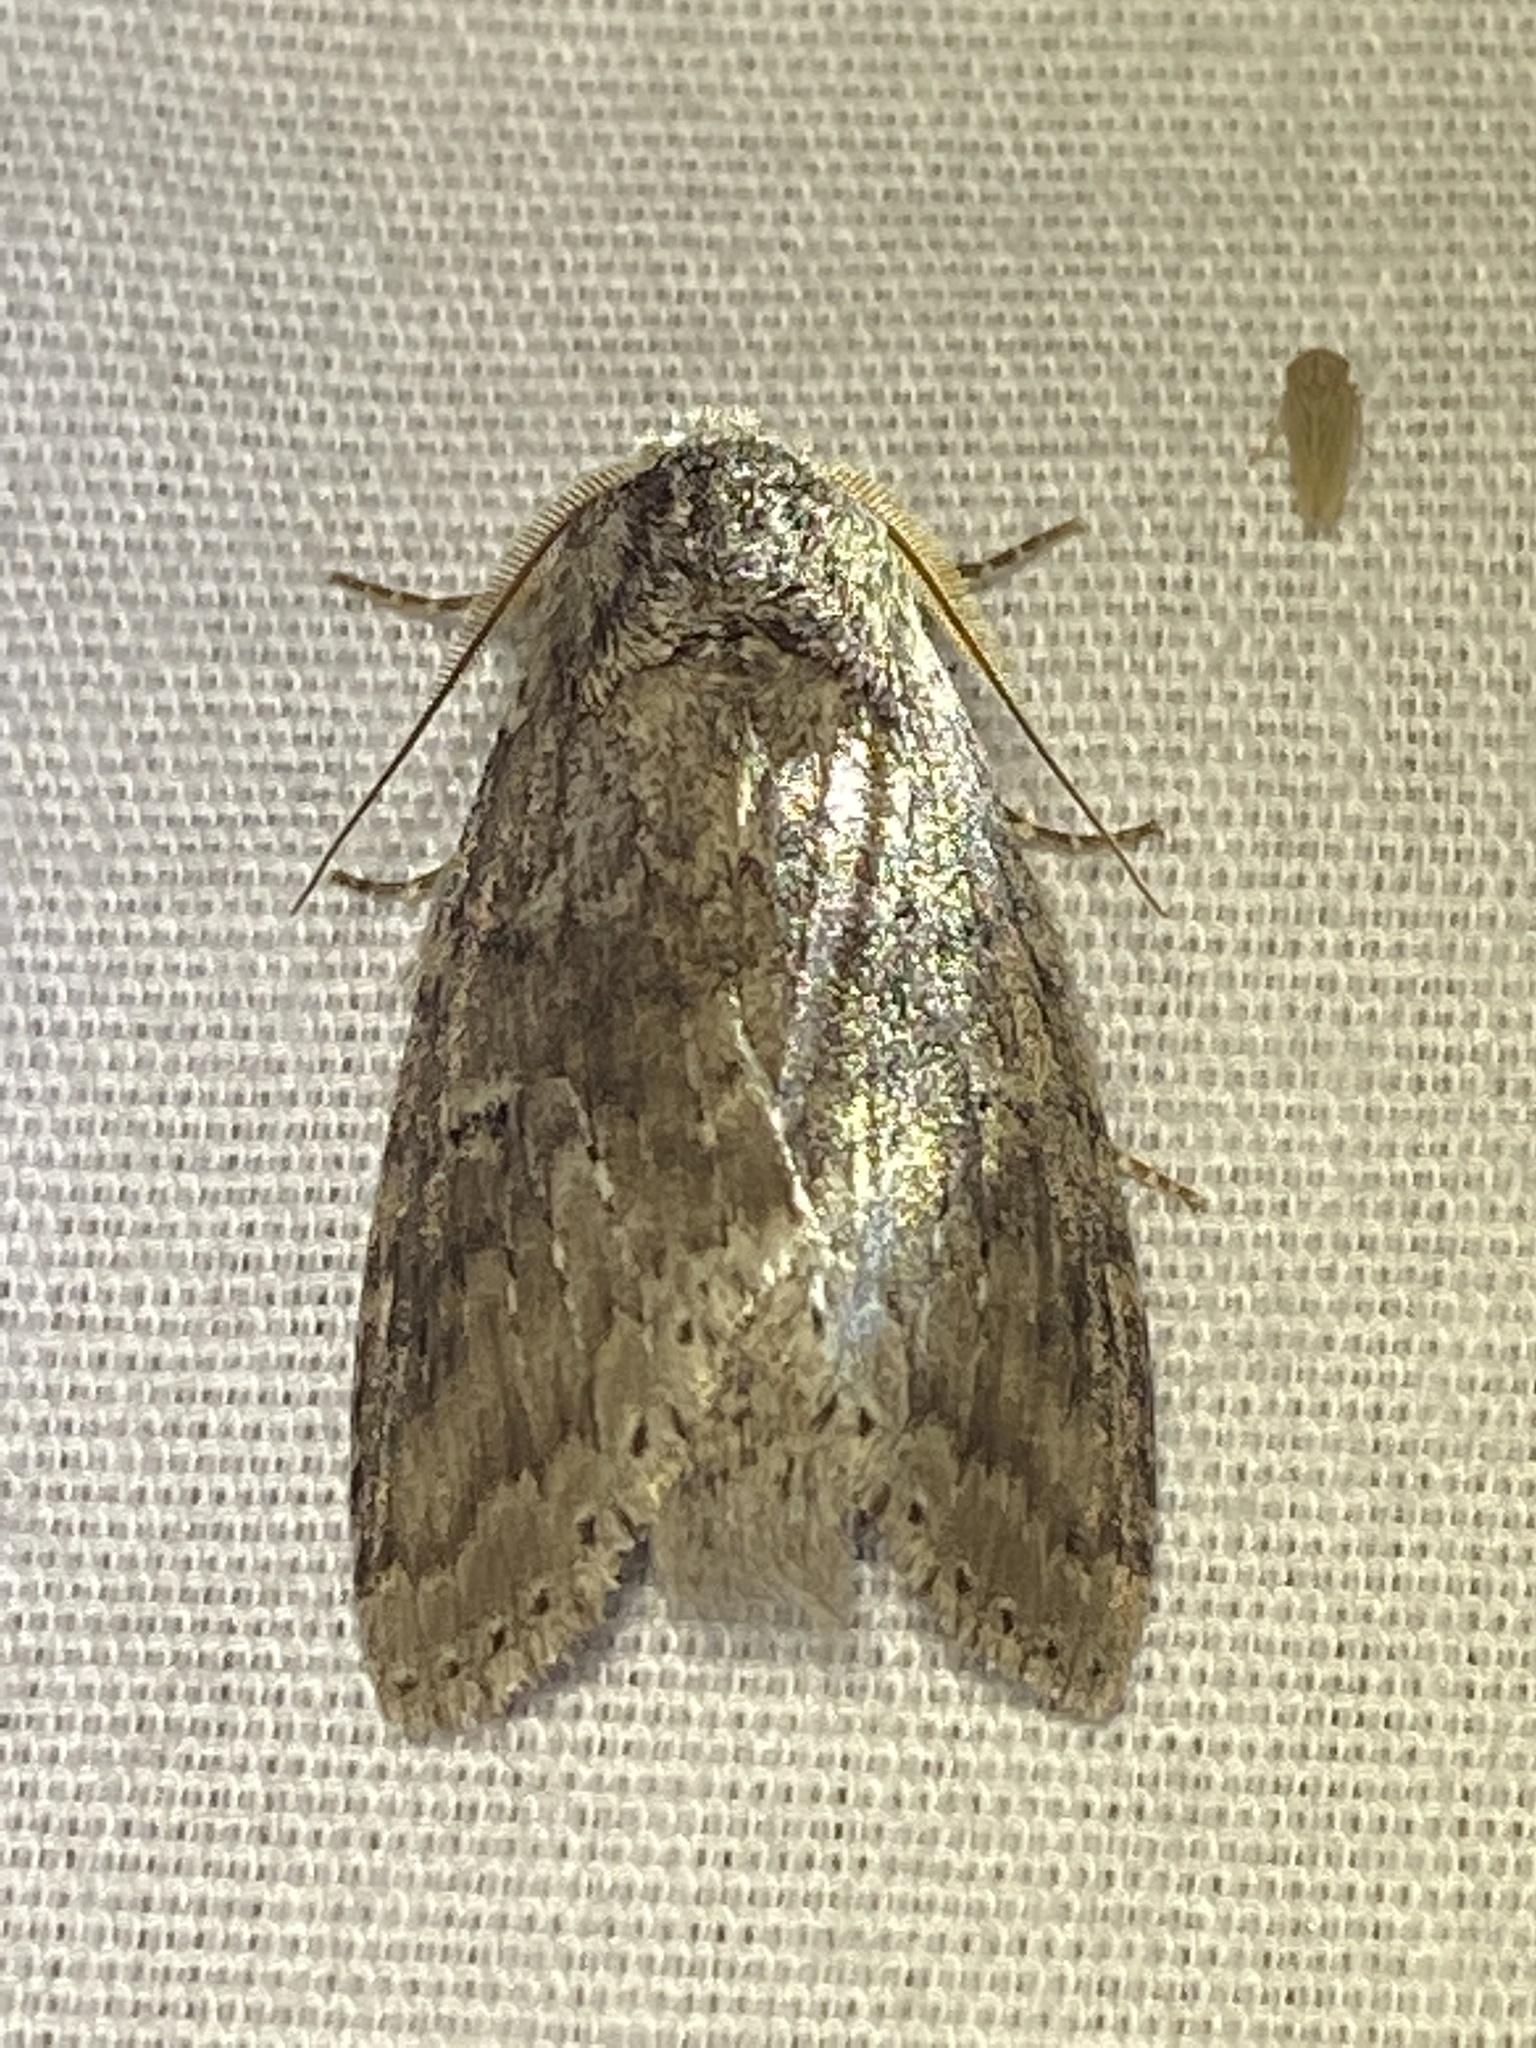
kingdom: Animalia
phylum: Arthropoda
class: Insecta
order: Lepidoptera
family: Notodontidae
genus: Lochmaeus
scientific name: Lochmaeus manteo
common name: Variable oakleaf caterpillar moth
